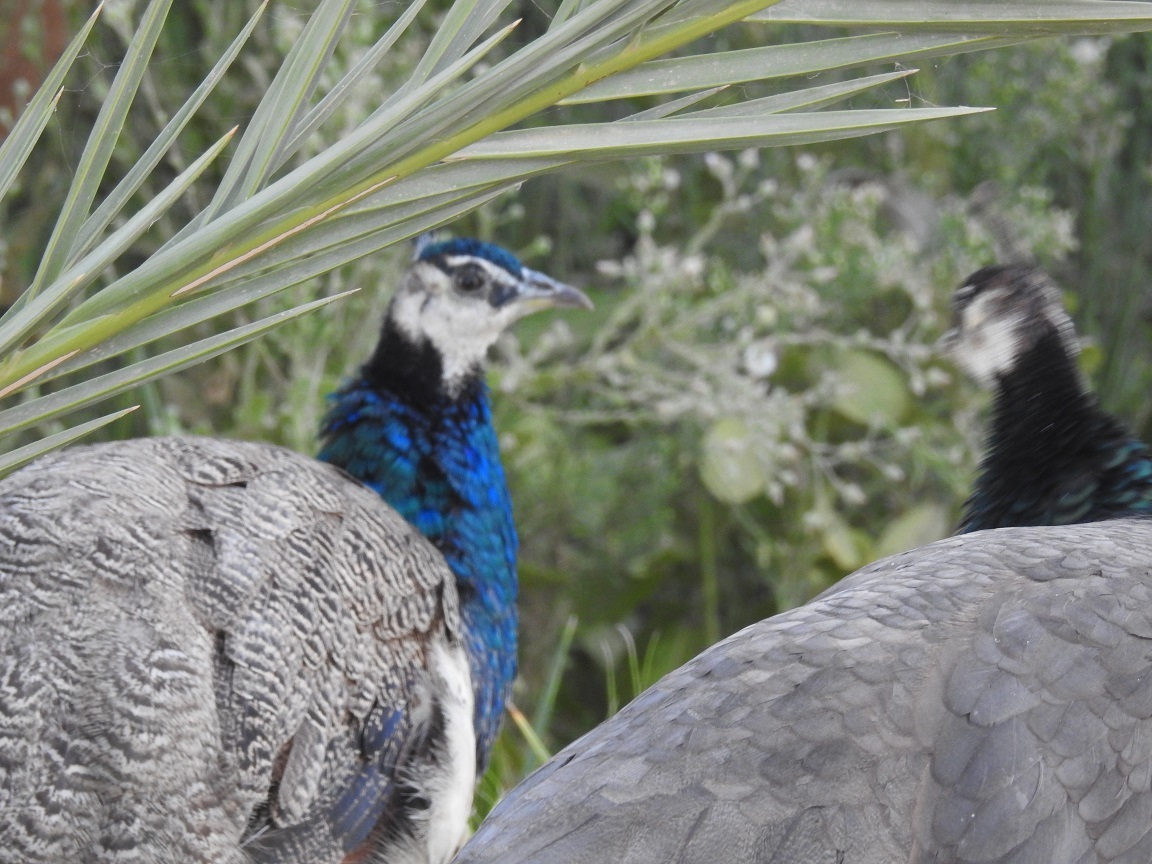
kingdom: Animalia
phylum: Chordata
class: Aves
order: Galliformes
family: Phasianidae
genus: Pavo
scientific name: Pavo cristatus
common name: Indian peafowl
